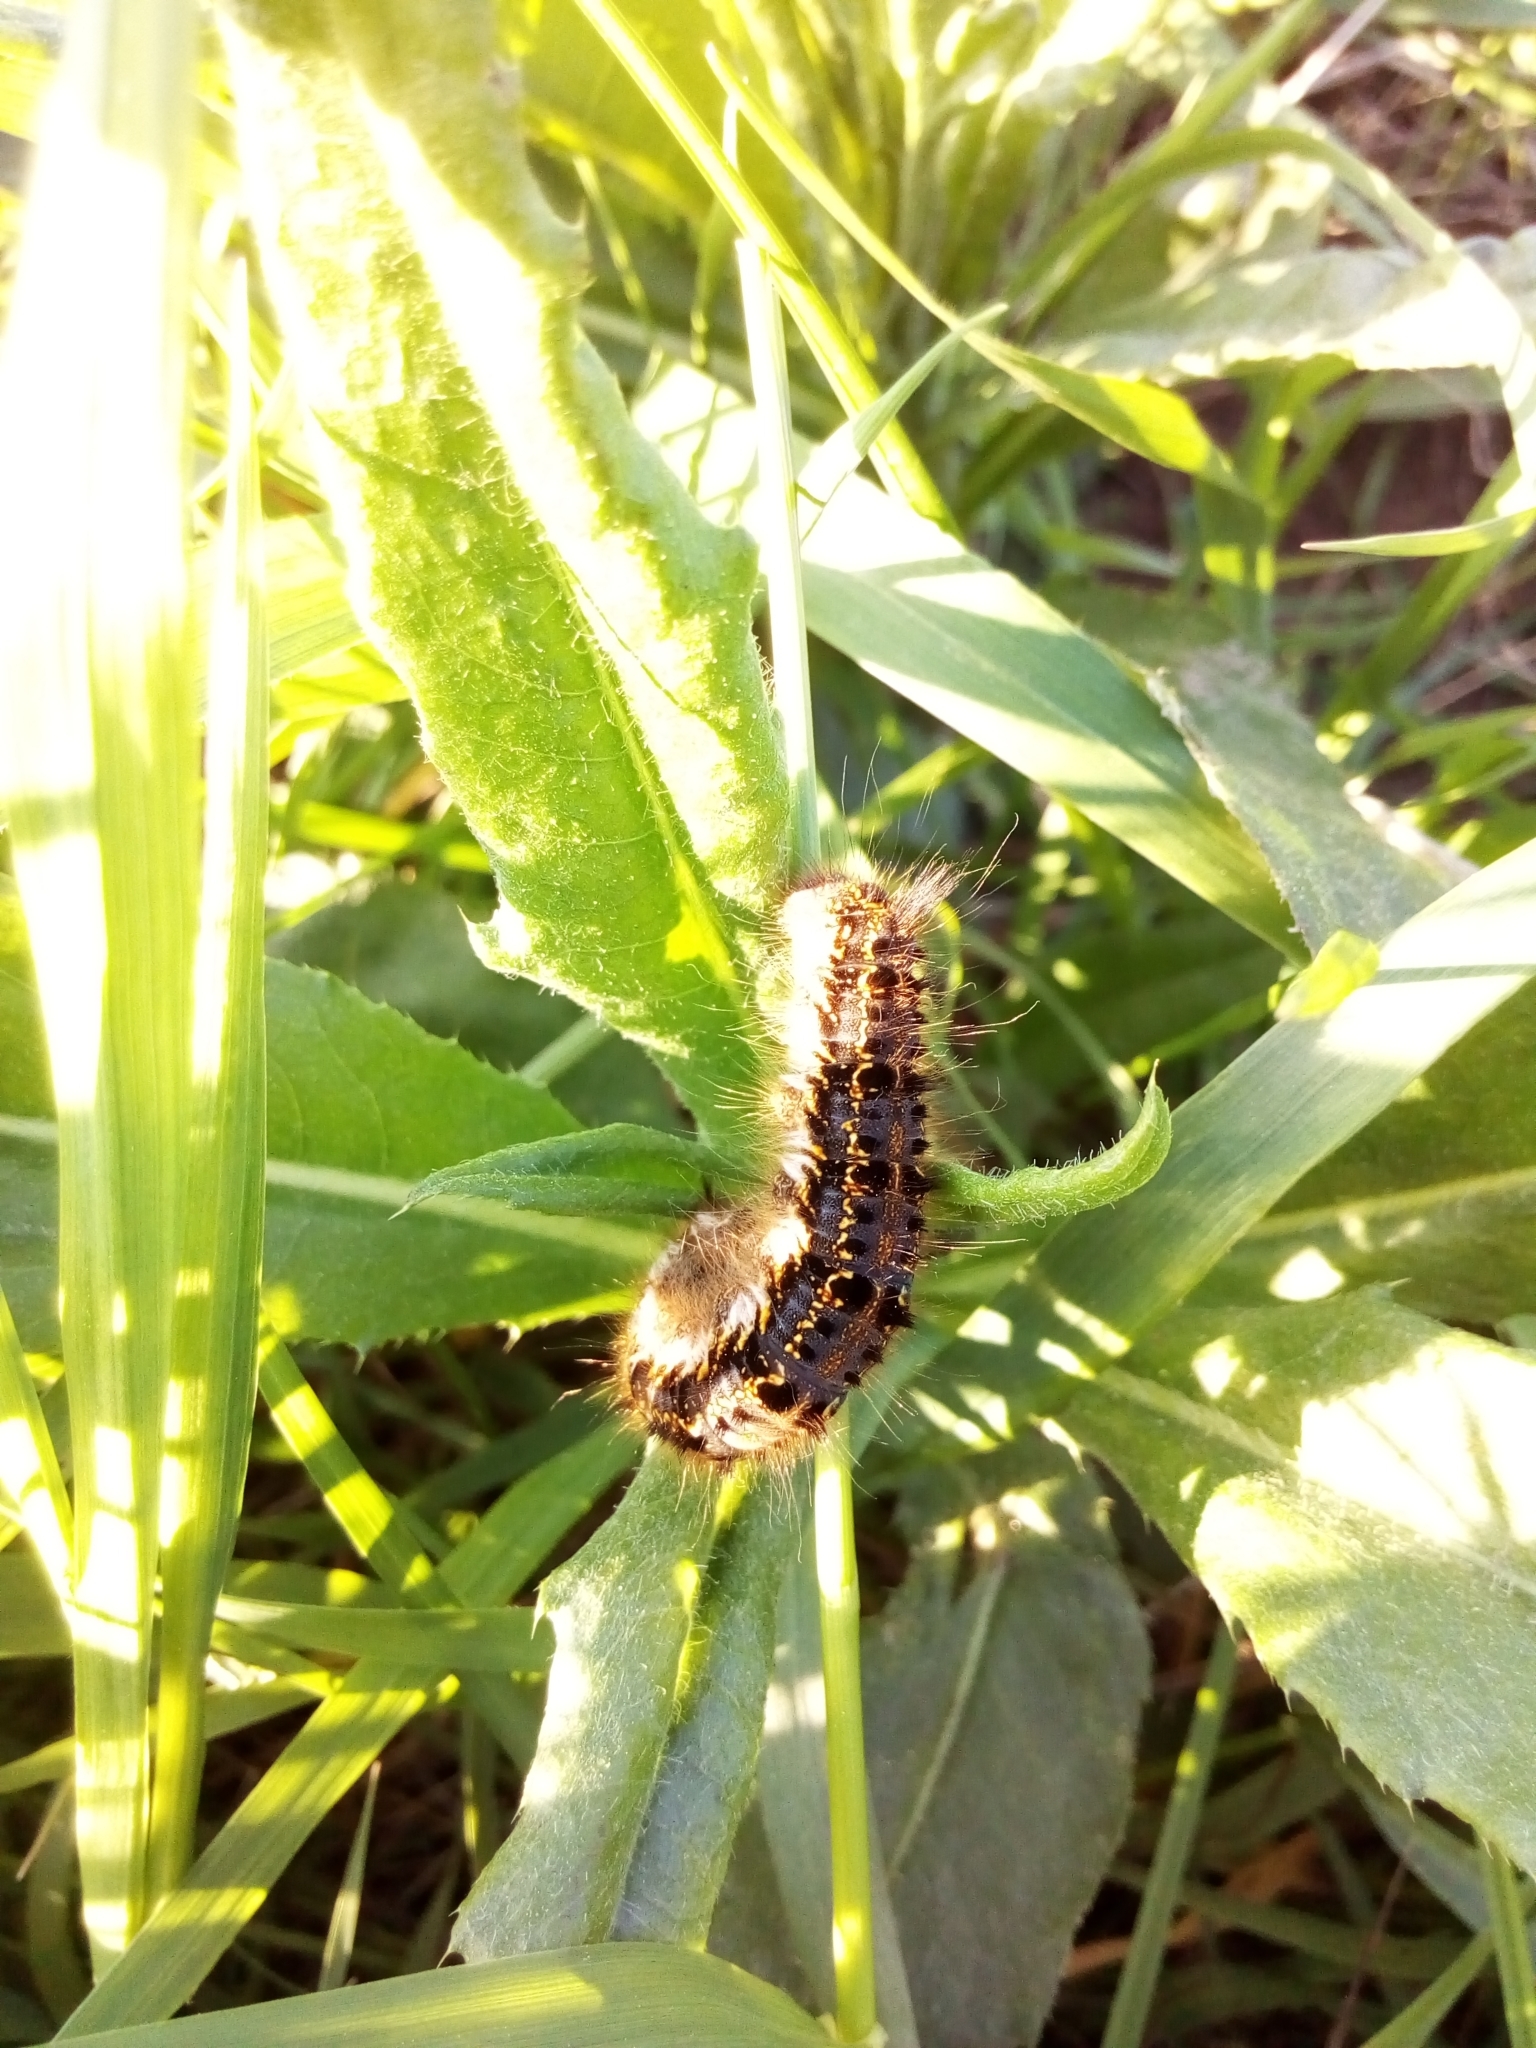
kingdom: Animalia
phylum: Arthropoda
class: Insecta
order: Lepidoptera
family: Lasiocampidae
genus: Euthrix
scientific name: Euthrix potatoria
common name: Drinker
